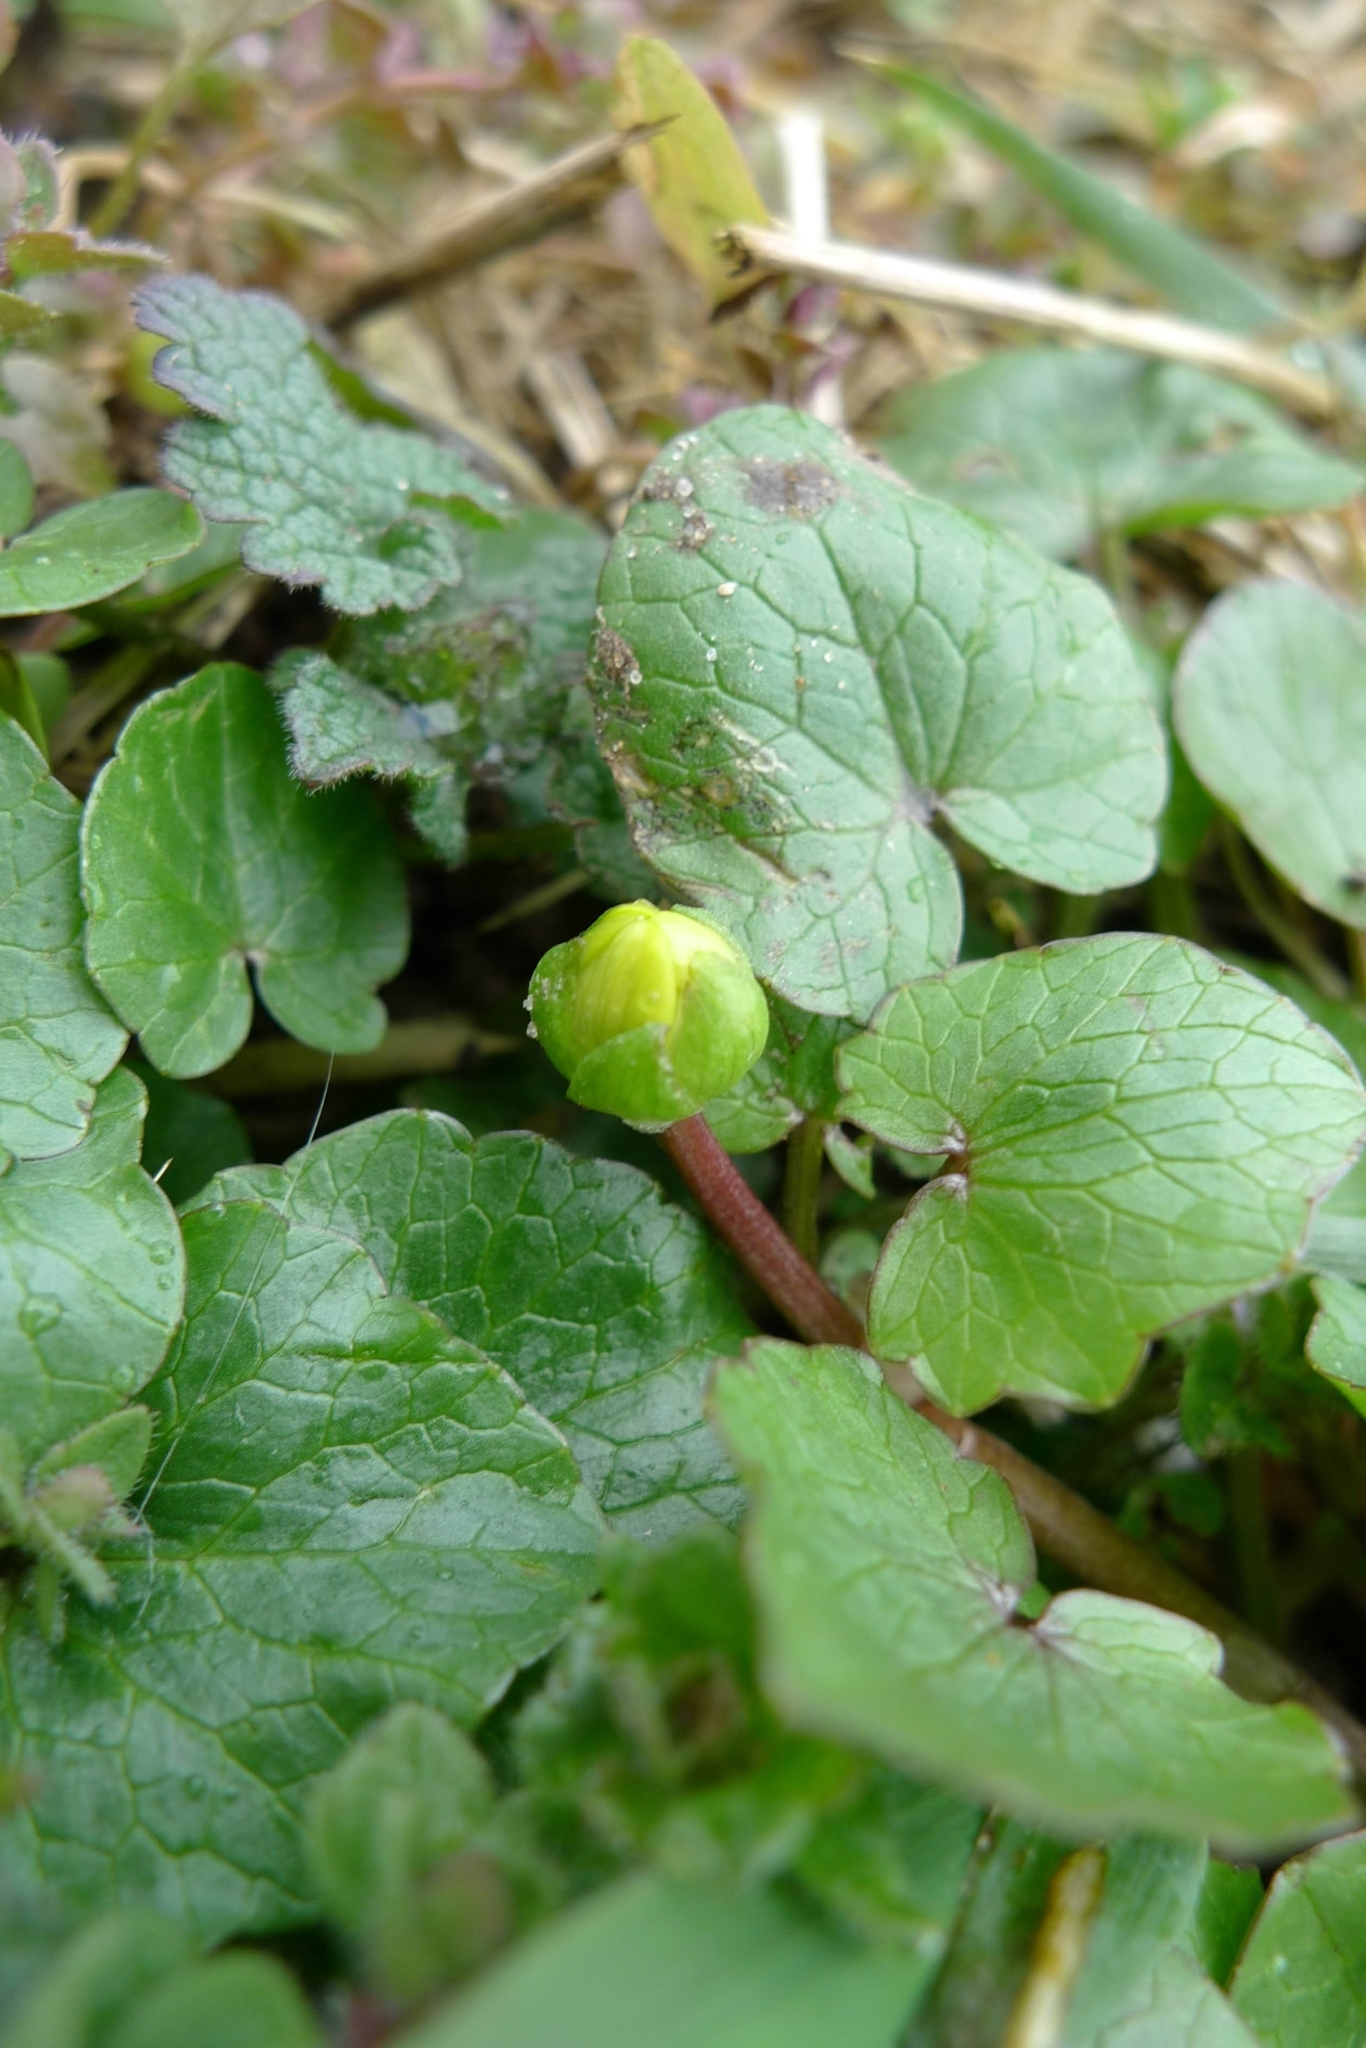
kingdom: Plantae
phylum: Tracheophyta
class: Magnoliopsida
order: Ranunculales
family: Ranunculaceae
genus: Ficaria
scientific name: Ficaria verna
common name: Lesser celandine
